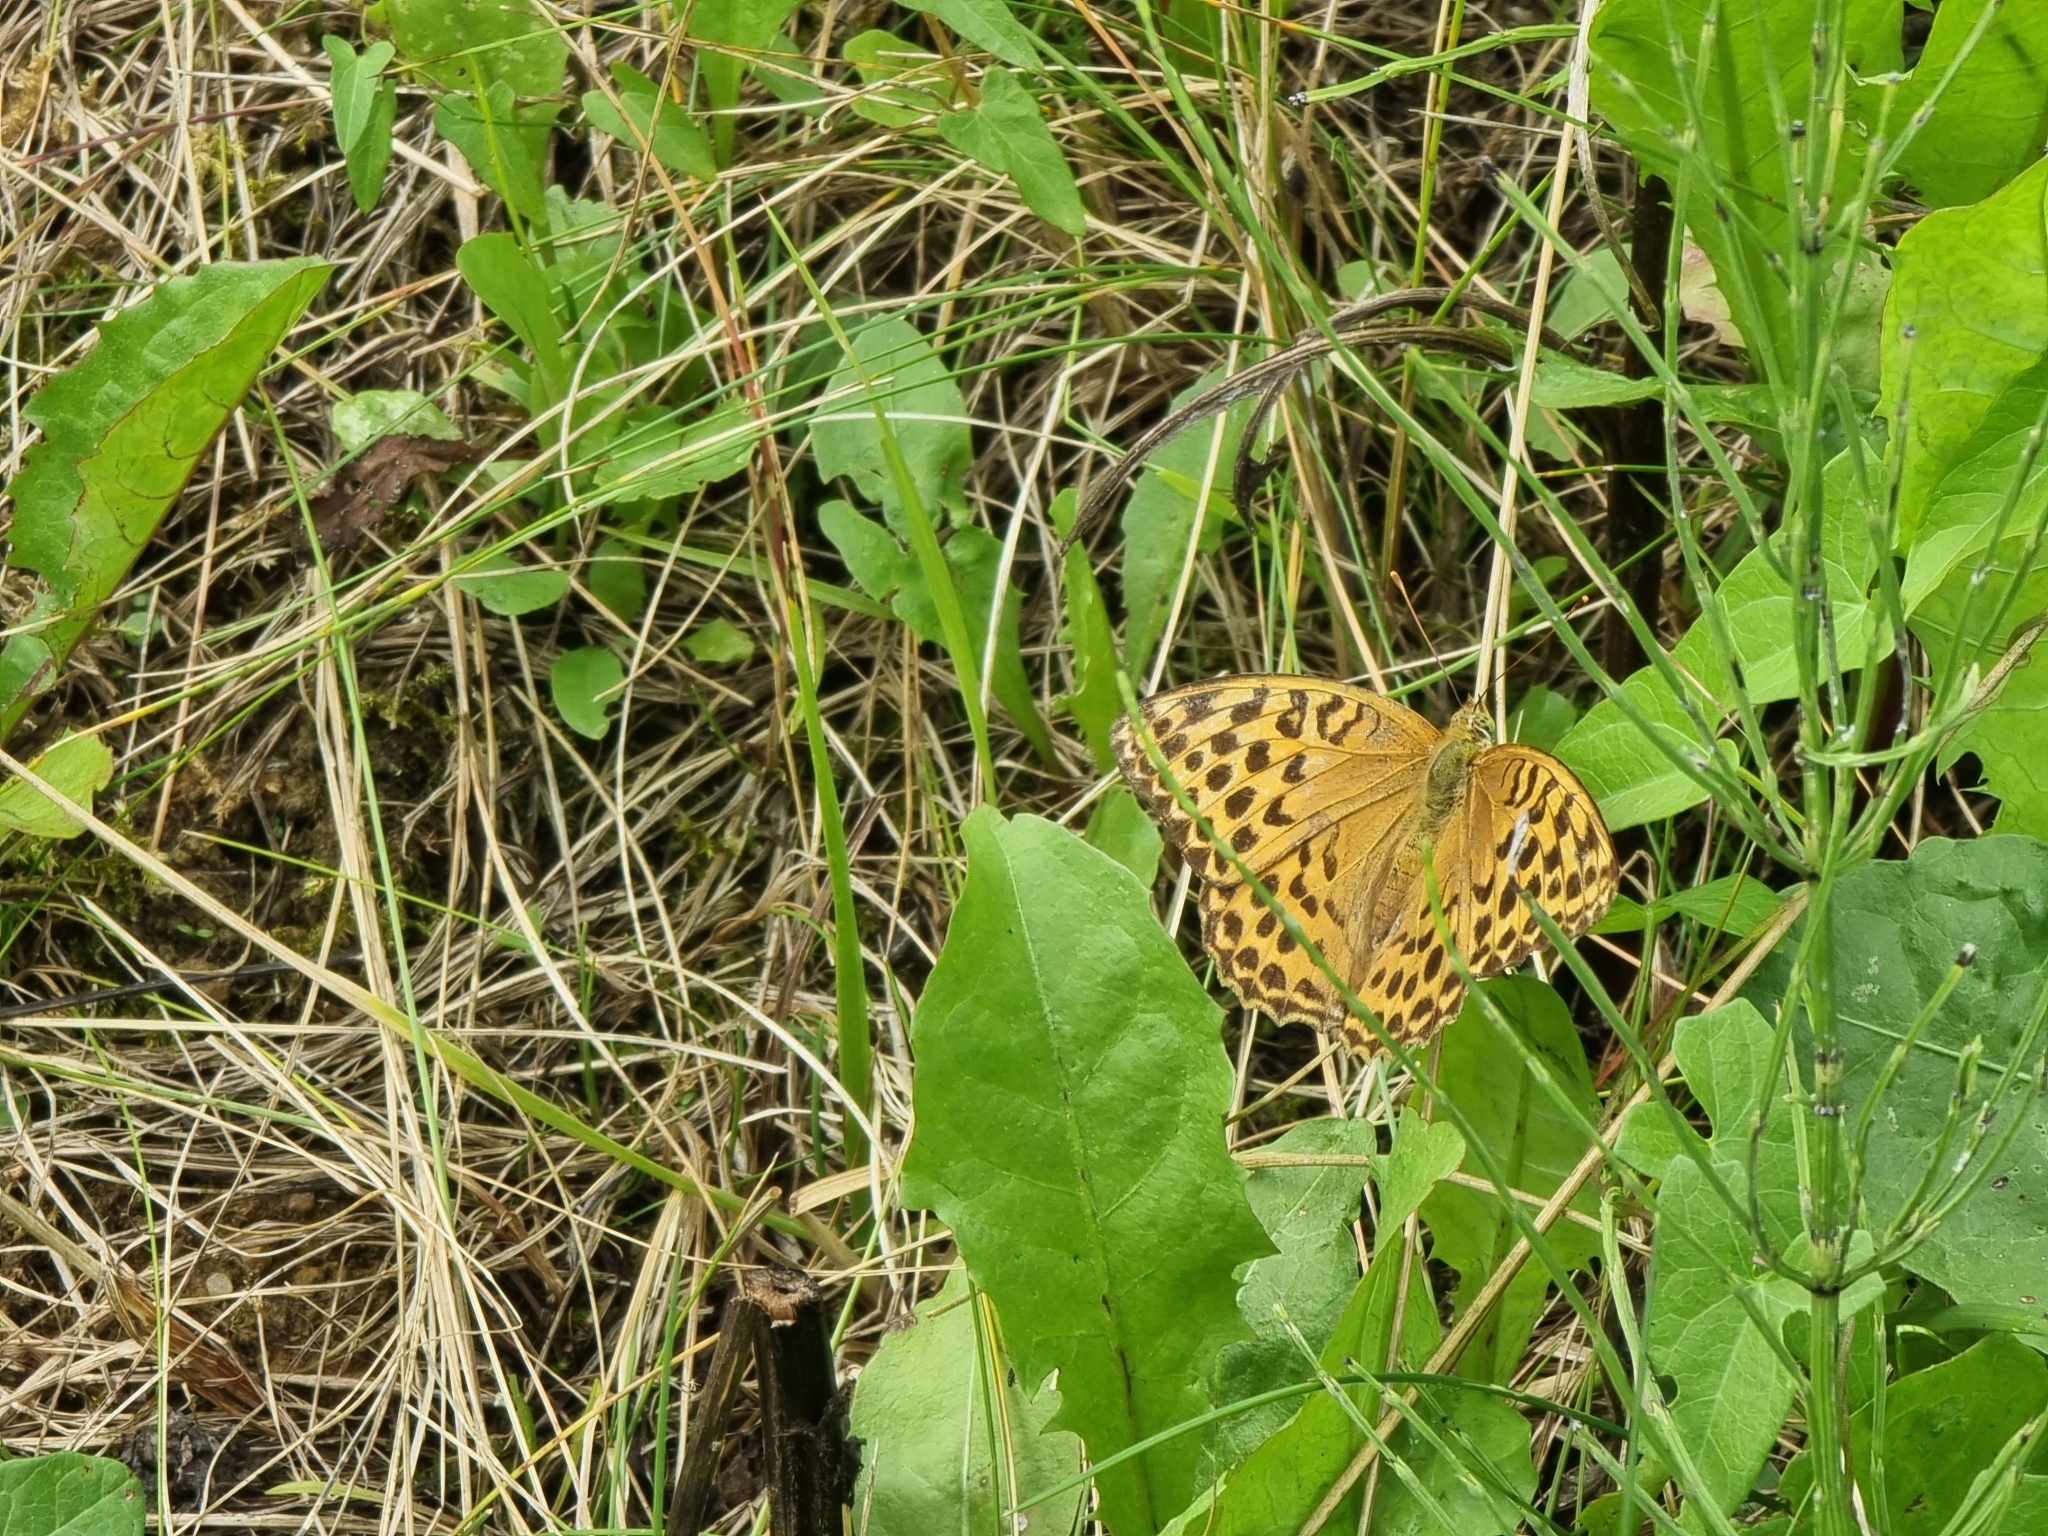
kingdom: Animalia
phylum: Arthropoda
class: Insecta
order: Lepidoptera
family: Nymphalidae
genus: Argynnis
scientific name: Argynnis paphia
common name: Silver-washed fritillary
